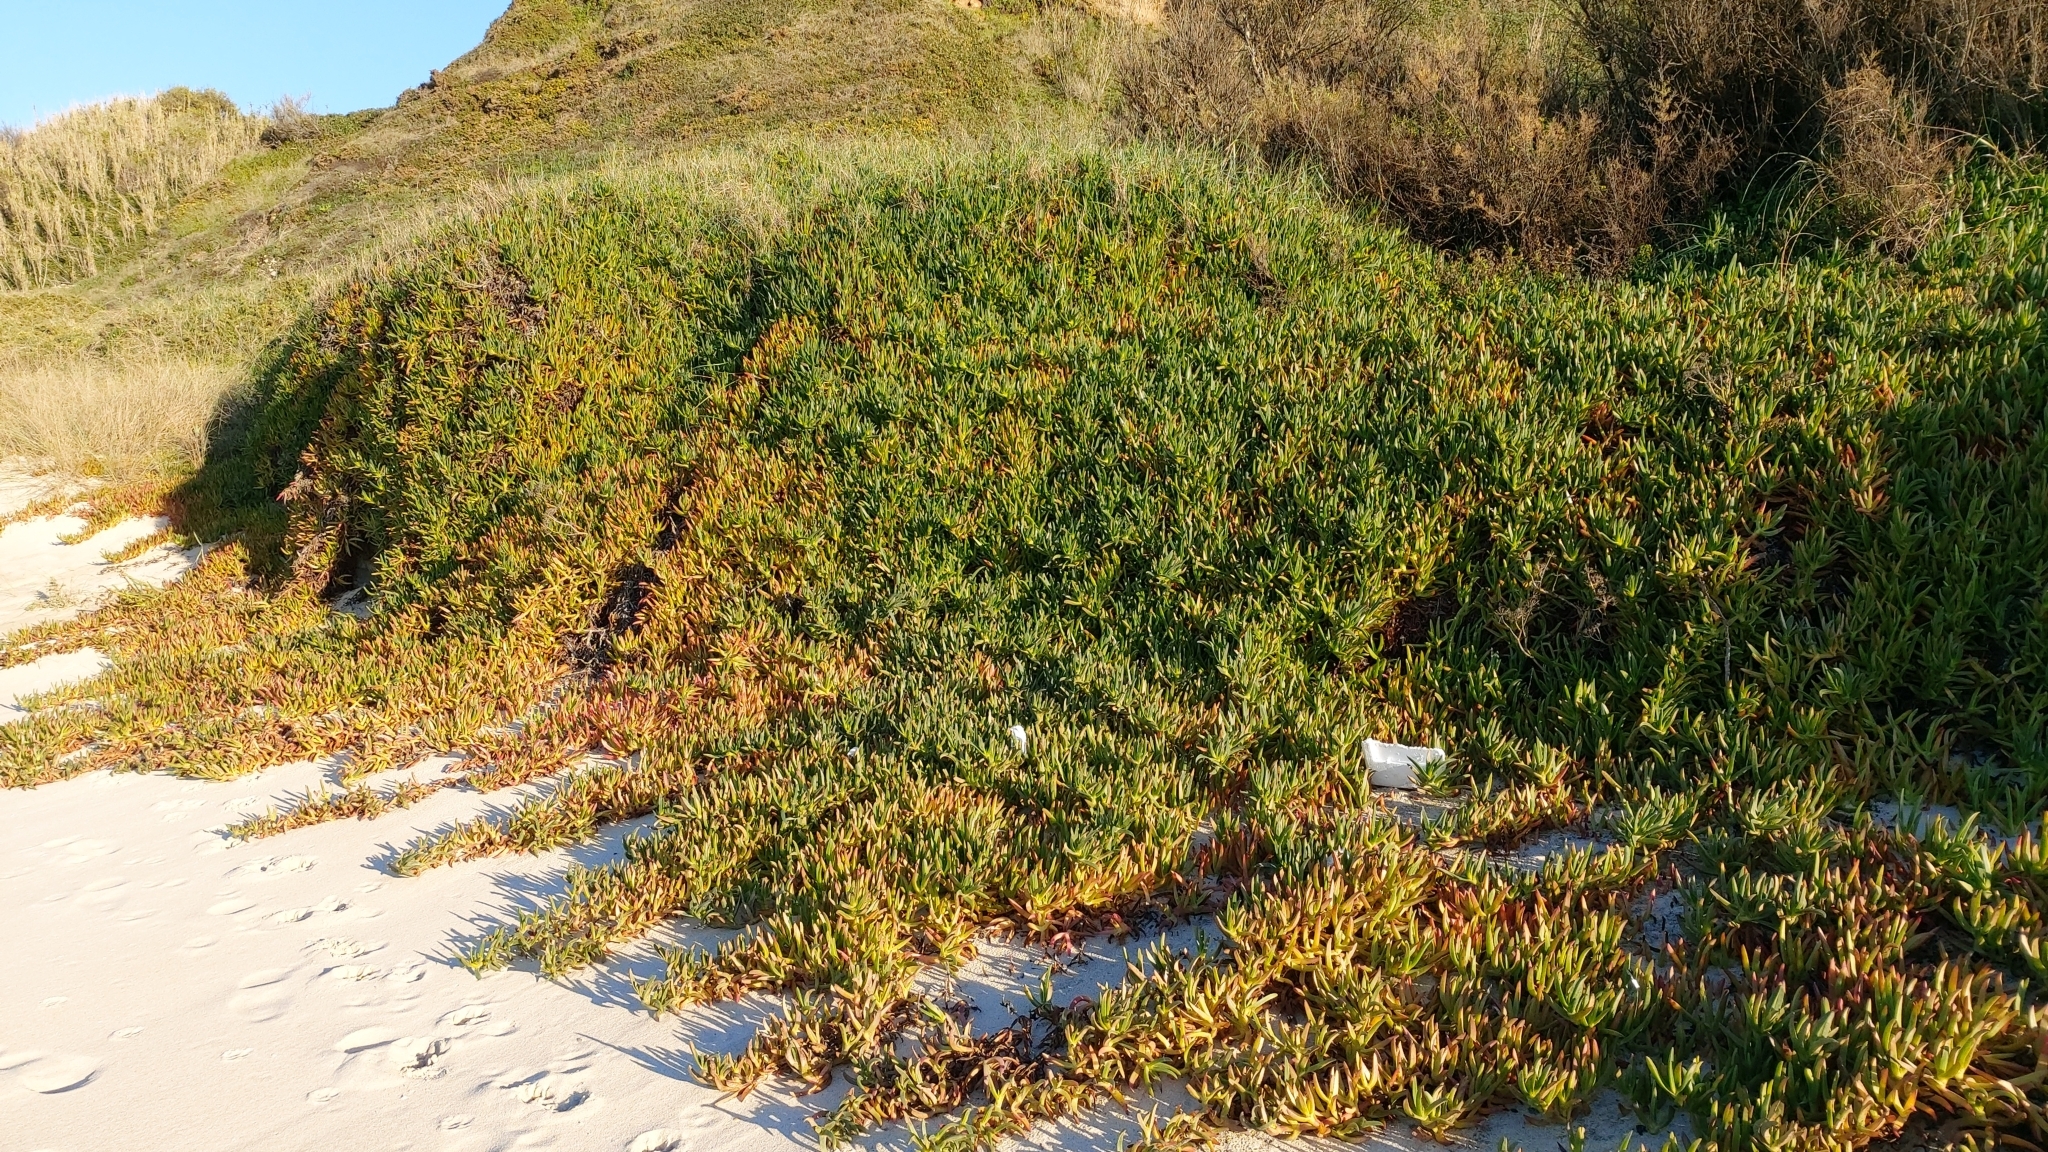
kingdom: Plantae
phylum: Tracheophyta
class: Magnoliopsida
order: Caryophyllales
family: Aizoaceae
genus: Carpobrotus
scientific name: Carpobrotus edulis
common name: Hottentot-fig
